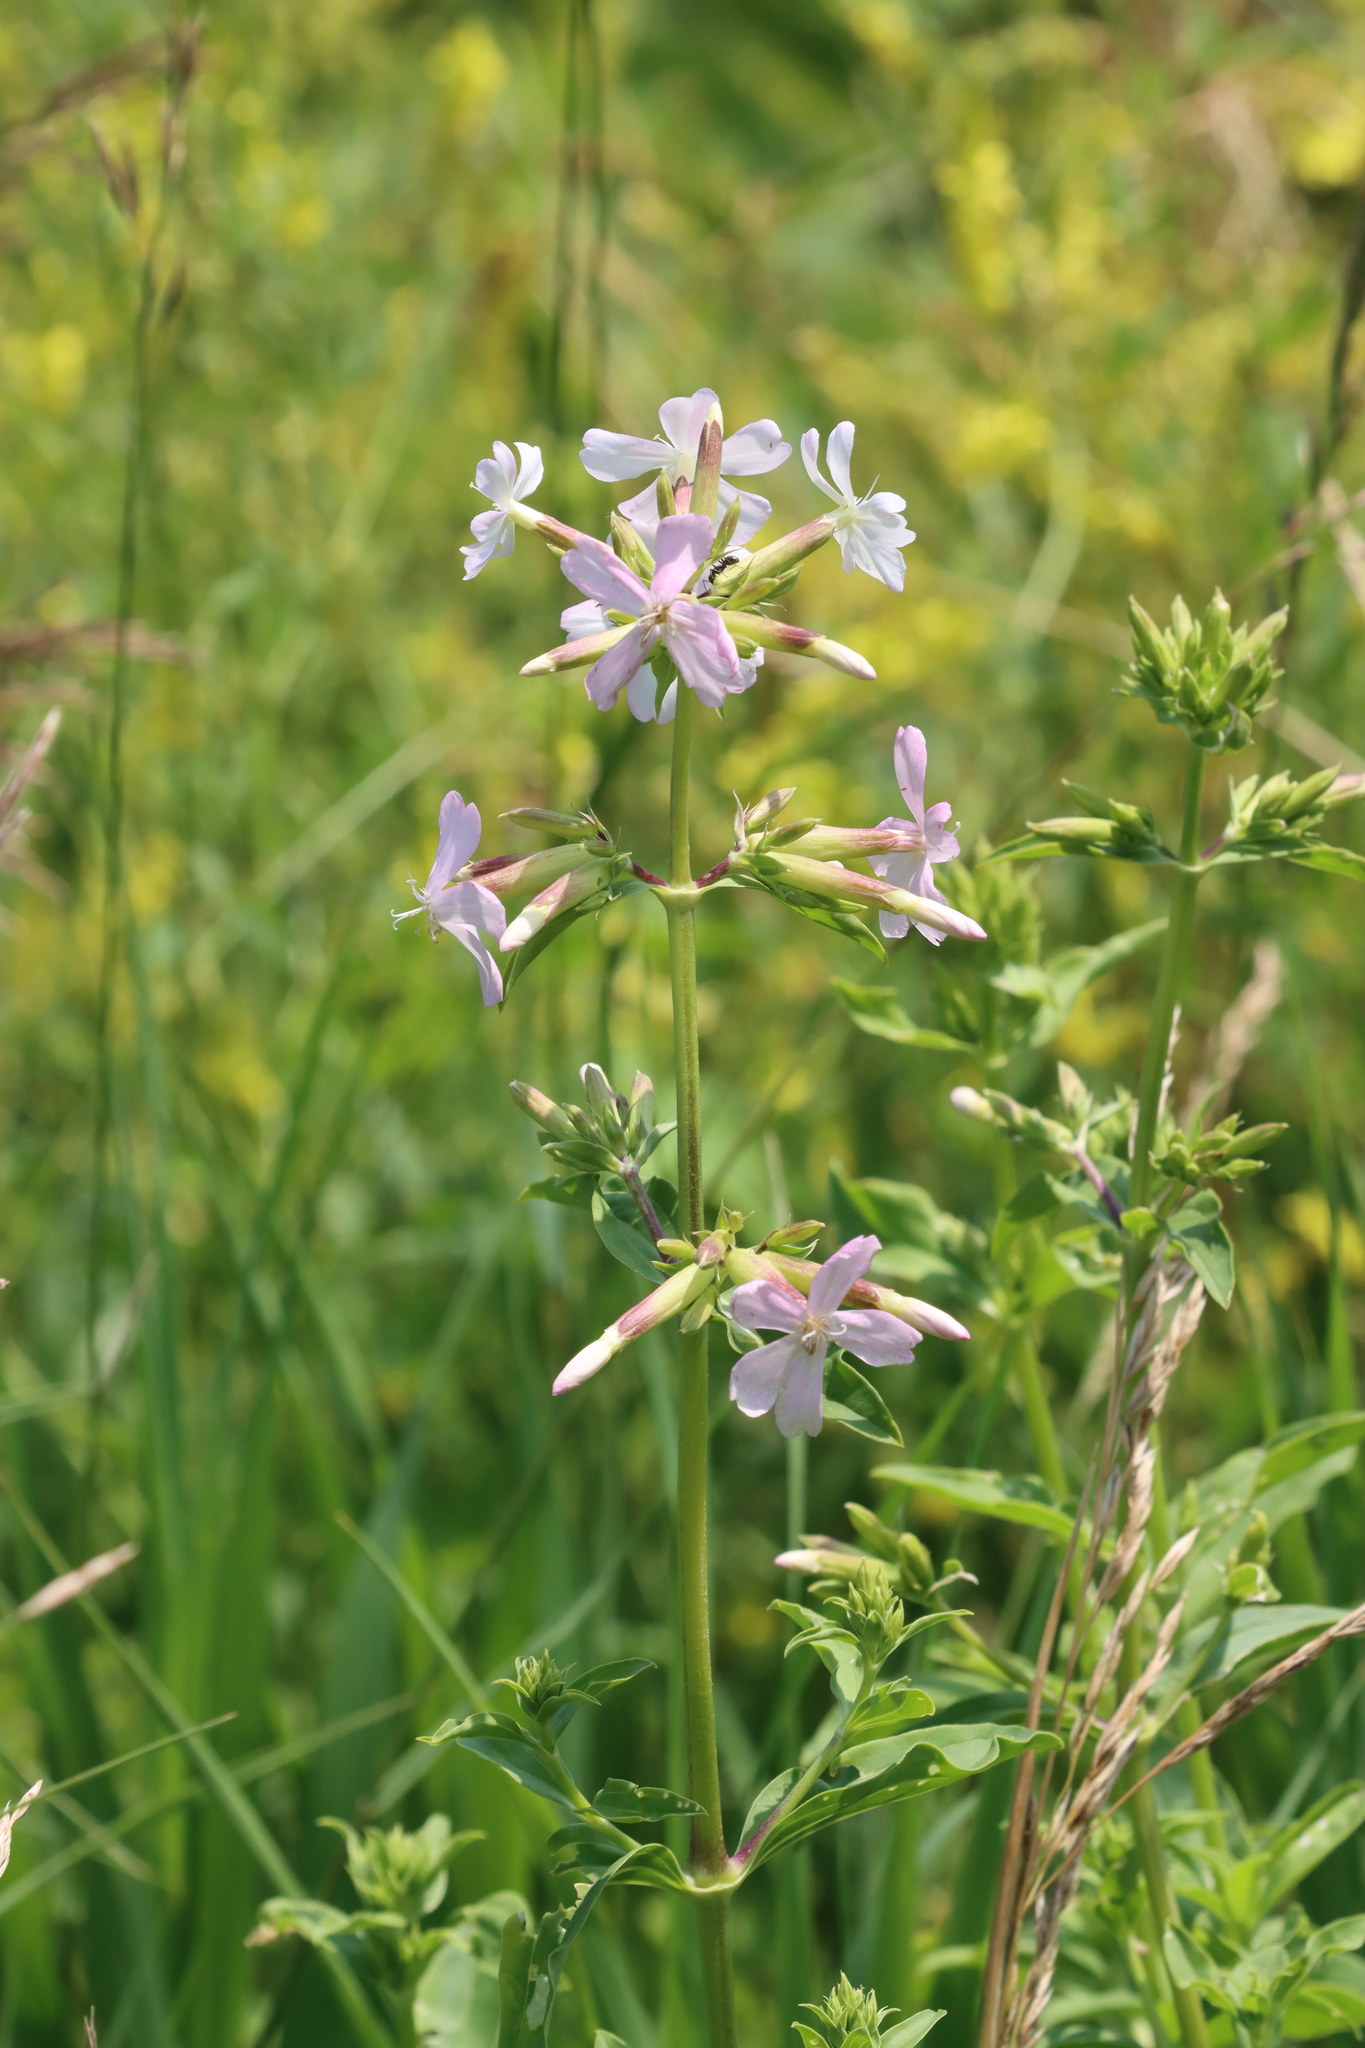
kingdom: Plantae
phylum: Tracheophyta
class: Magnoliopsida
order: Caryophyllales
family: Caryophyllaceae
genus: Saponaria
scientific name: Saponaria officinalis
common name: Soapwort
